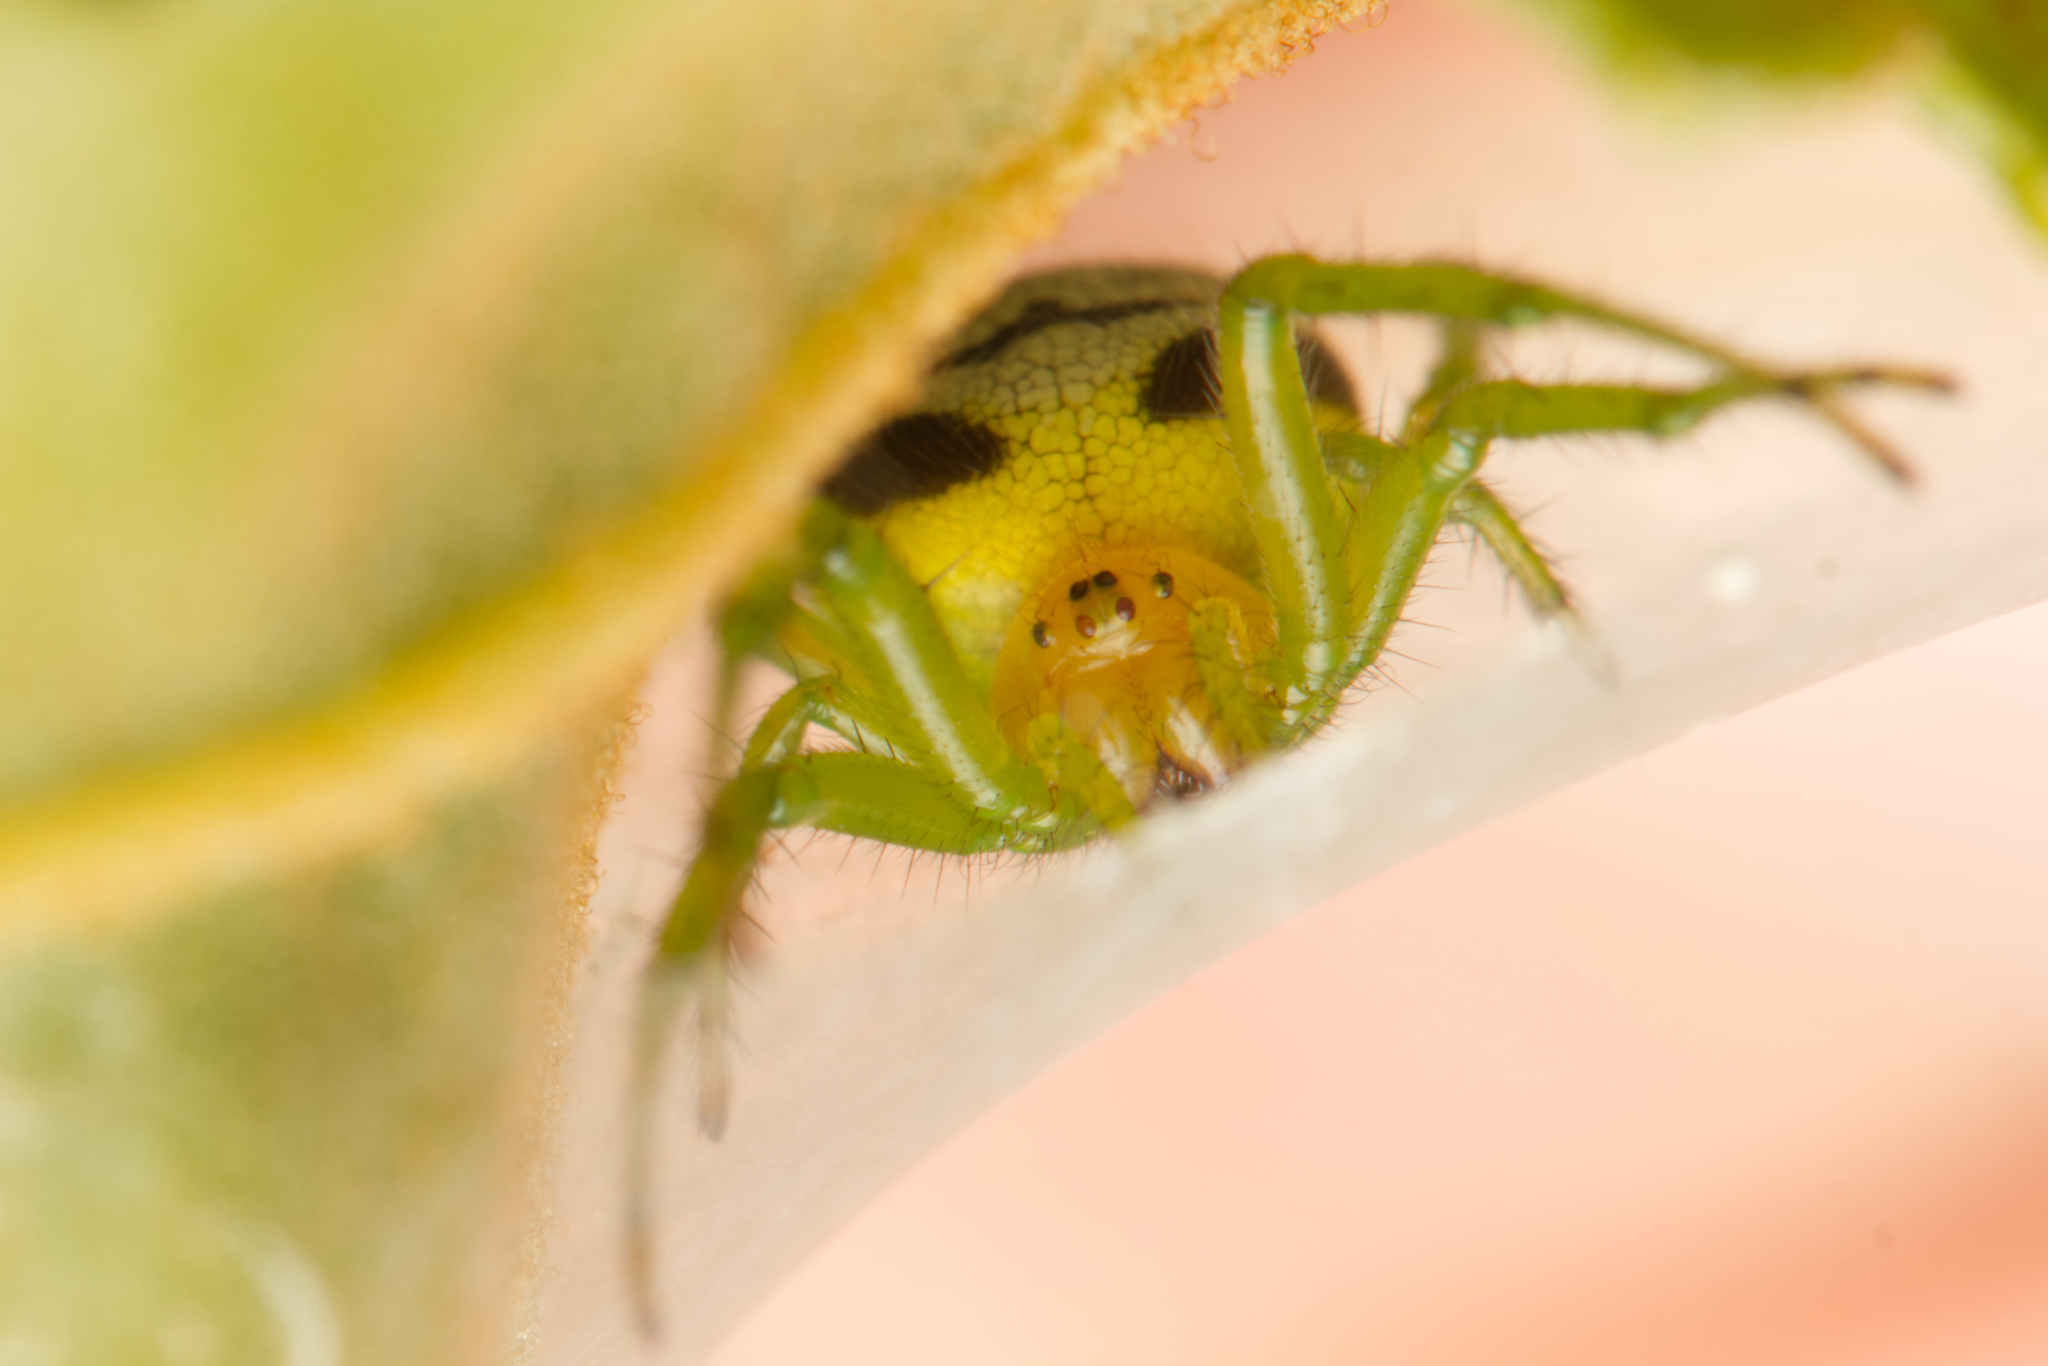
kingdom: Animalia
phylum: Arthropoda
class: Arachnida
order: Araneae
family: Araneidae
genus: Bijoaraneus
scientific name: Bijoaraneus praesignis
